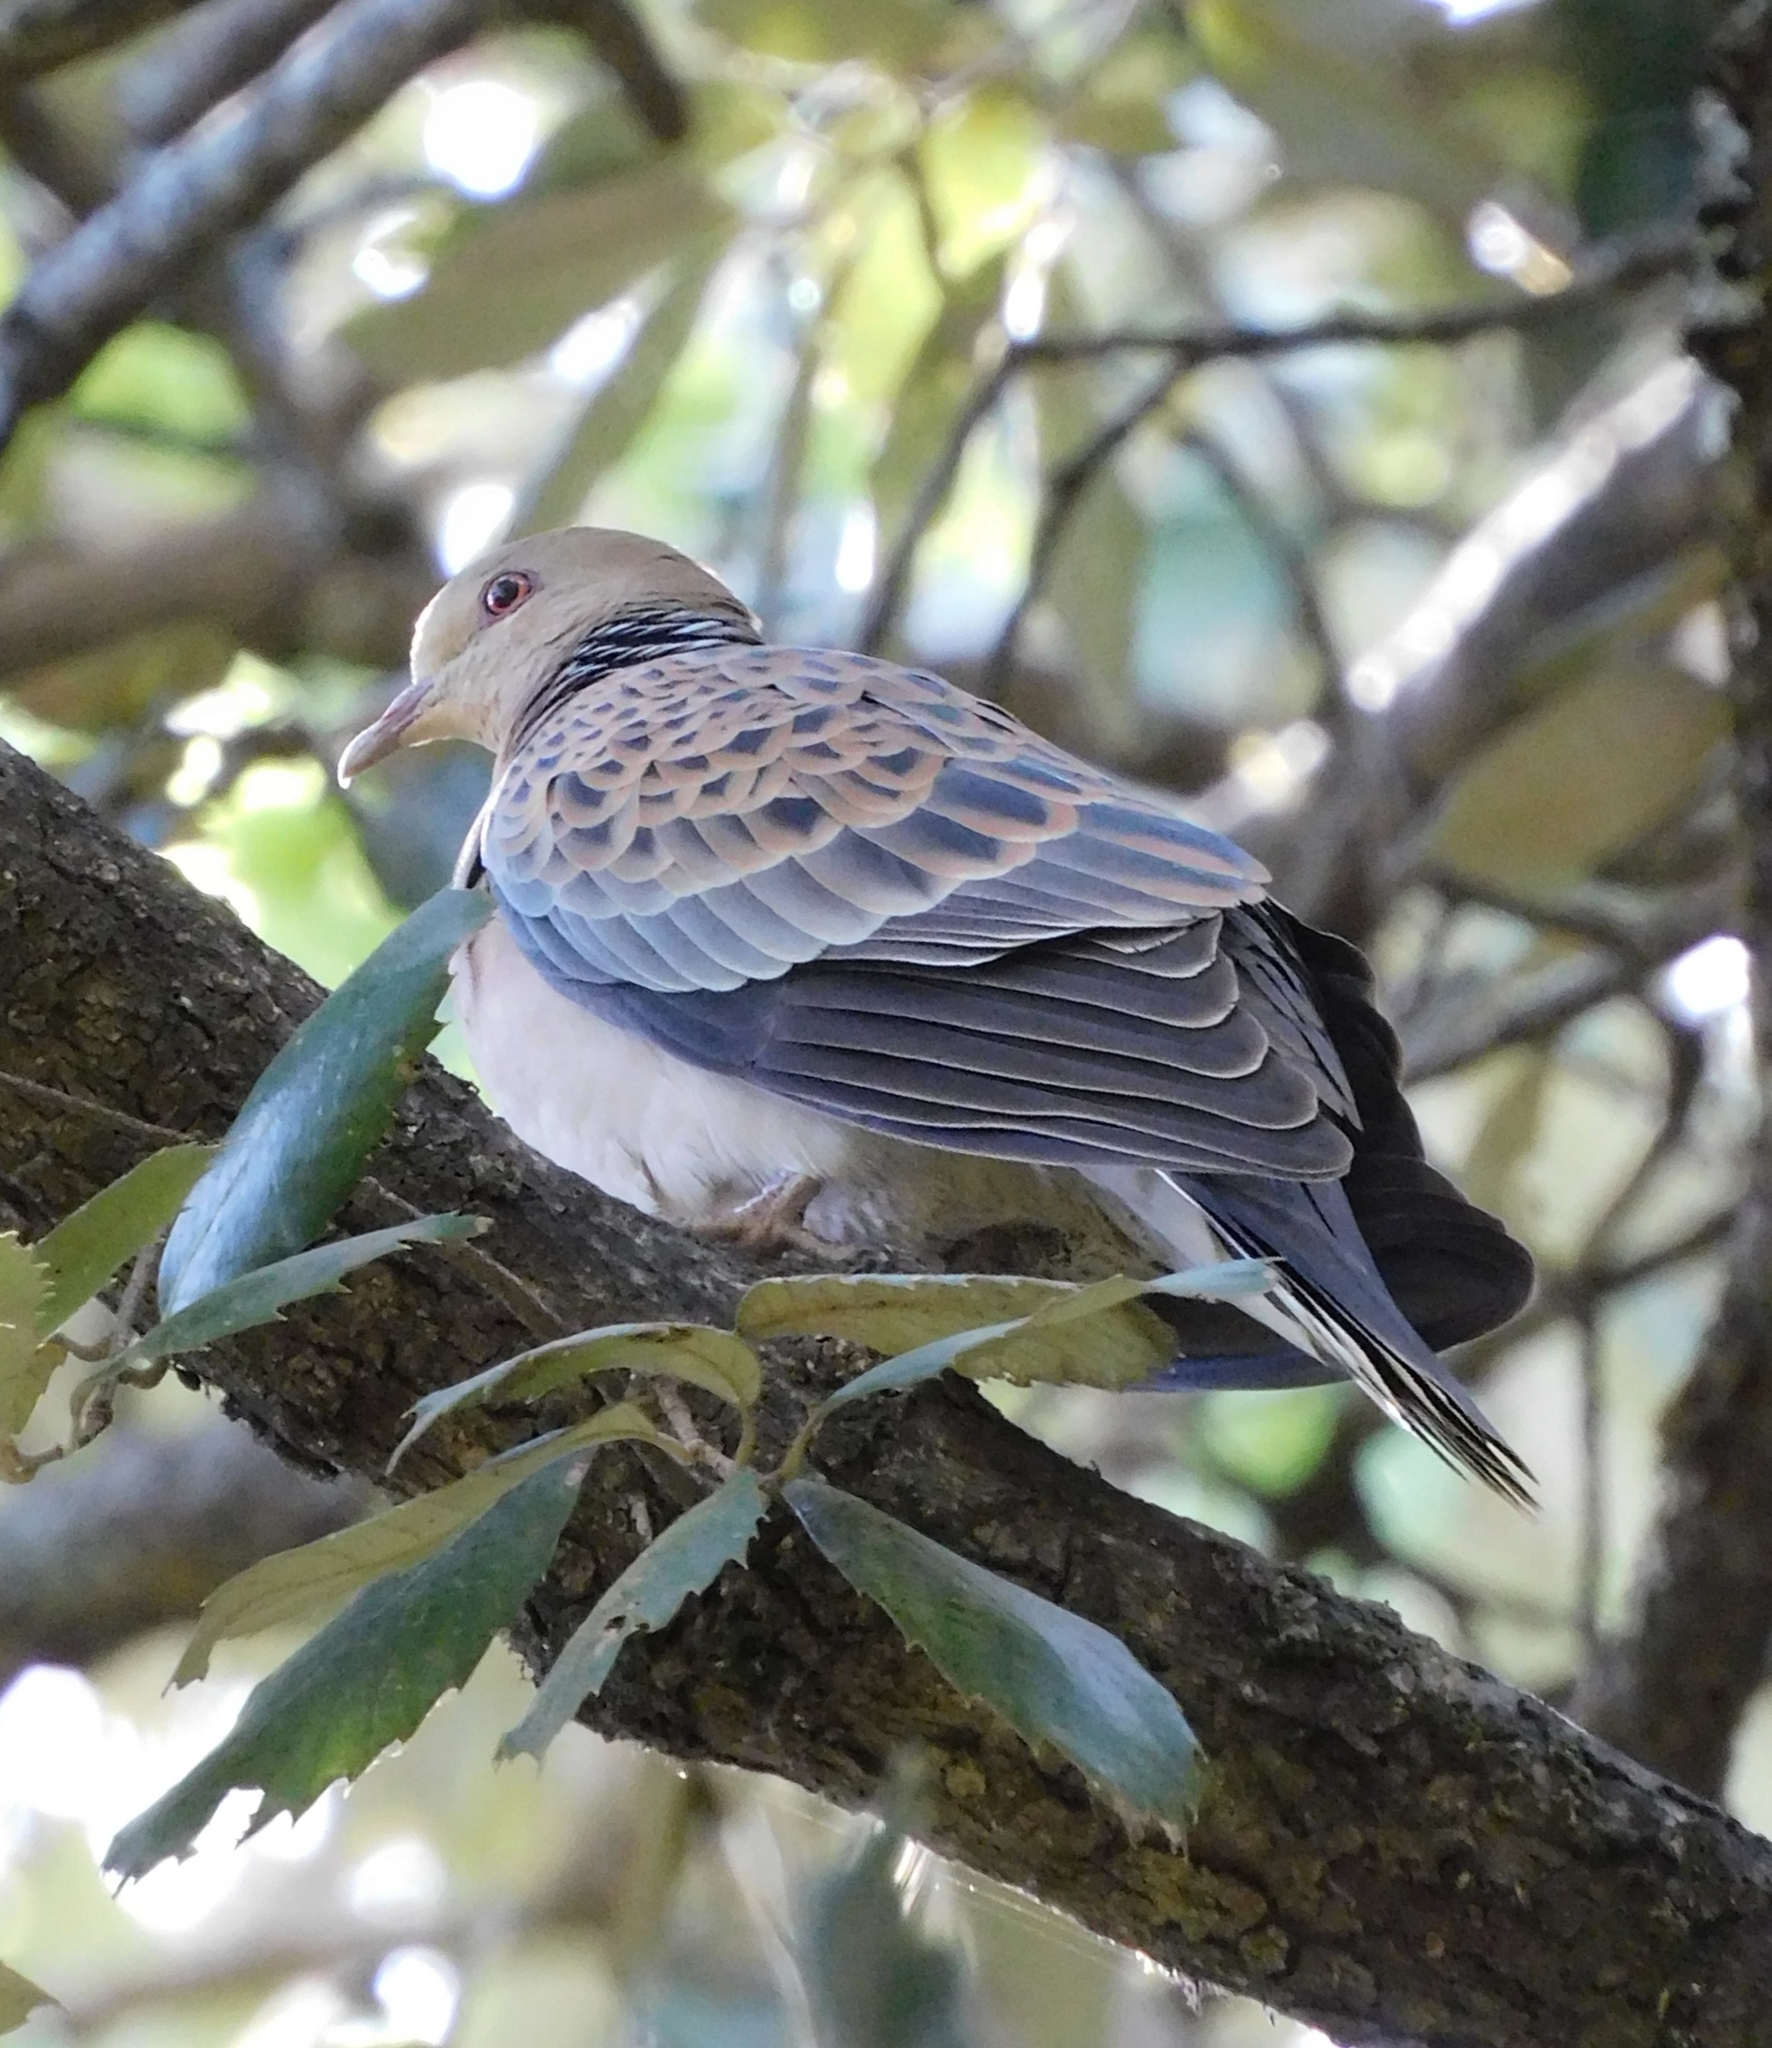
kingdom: Animalia
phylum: Chordata
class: Aves
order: Columbiformes
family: Columbidae
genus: Streptopelia
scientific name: Streptopelia orientalis
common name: Oriental turtle dove
